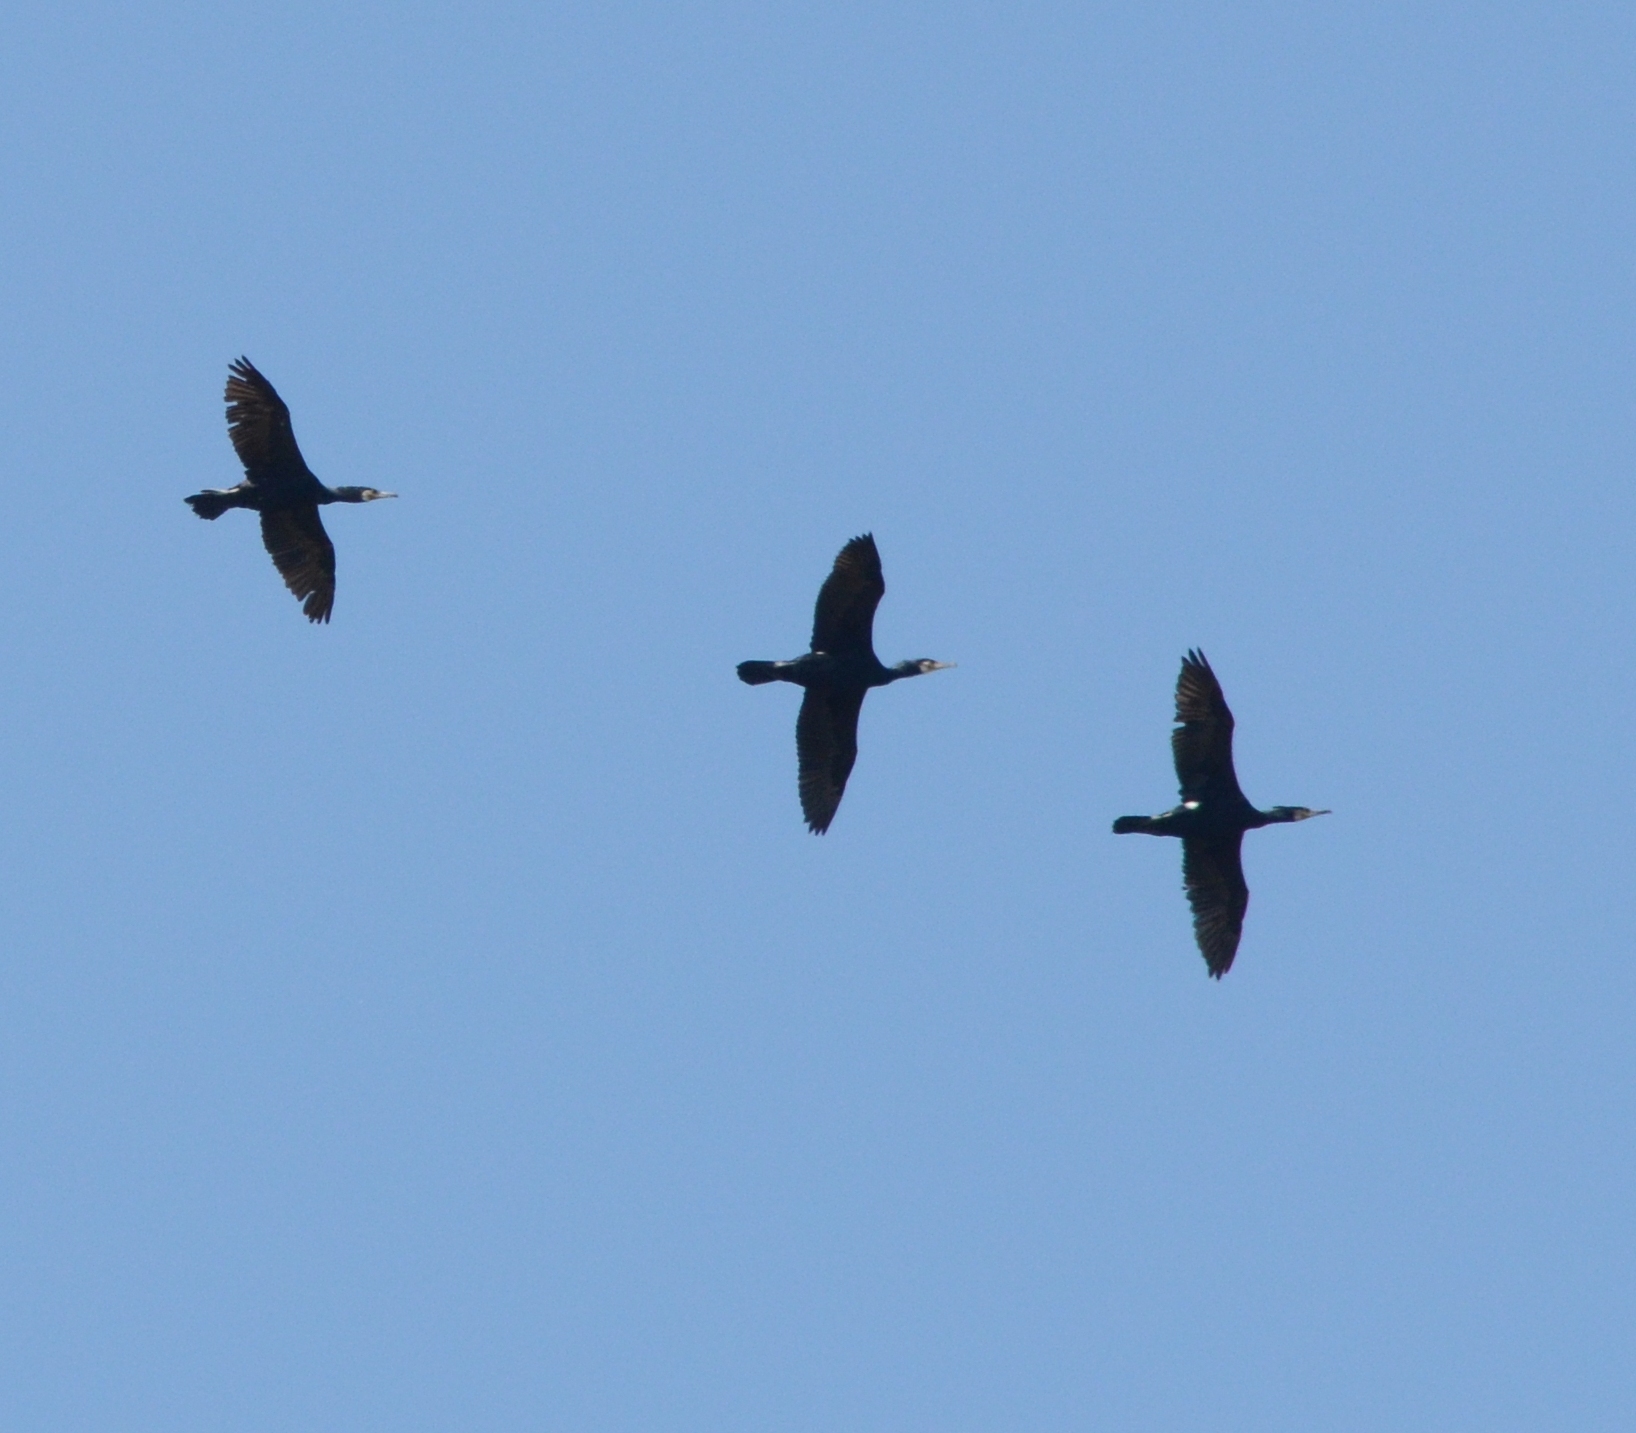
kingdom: Animalia
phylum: Chordata
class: Aves
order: Suliformes
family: Phalacrocoracidae
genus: Phalacrocorax
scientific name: Phalacrocorax carbo
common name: Great cormorant
